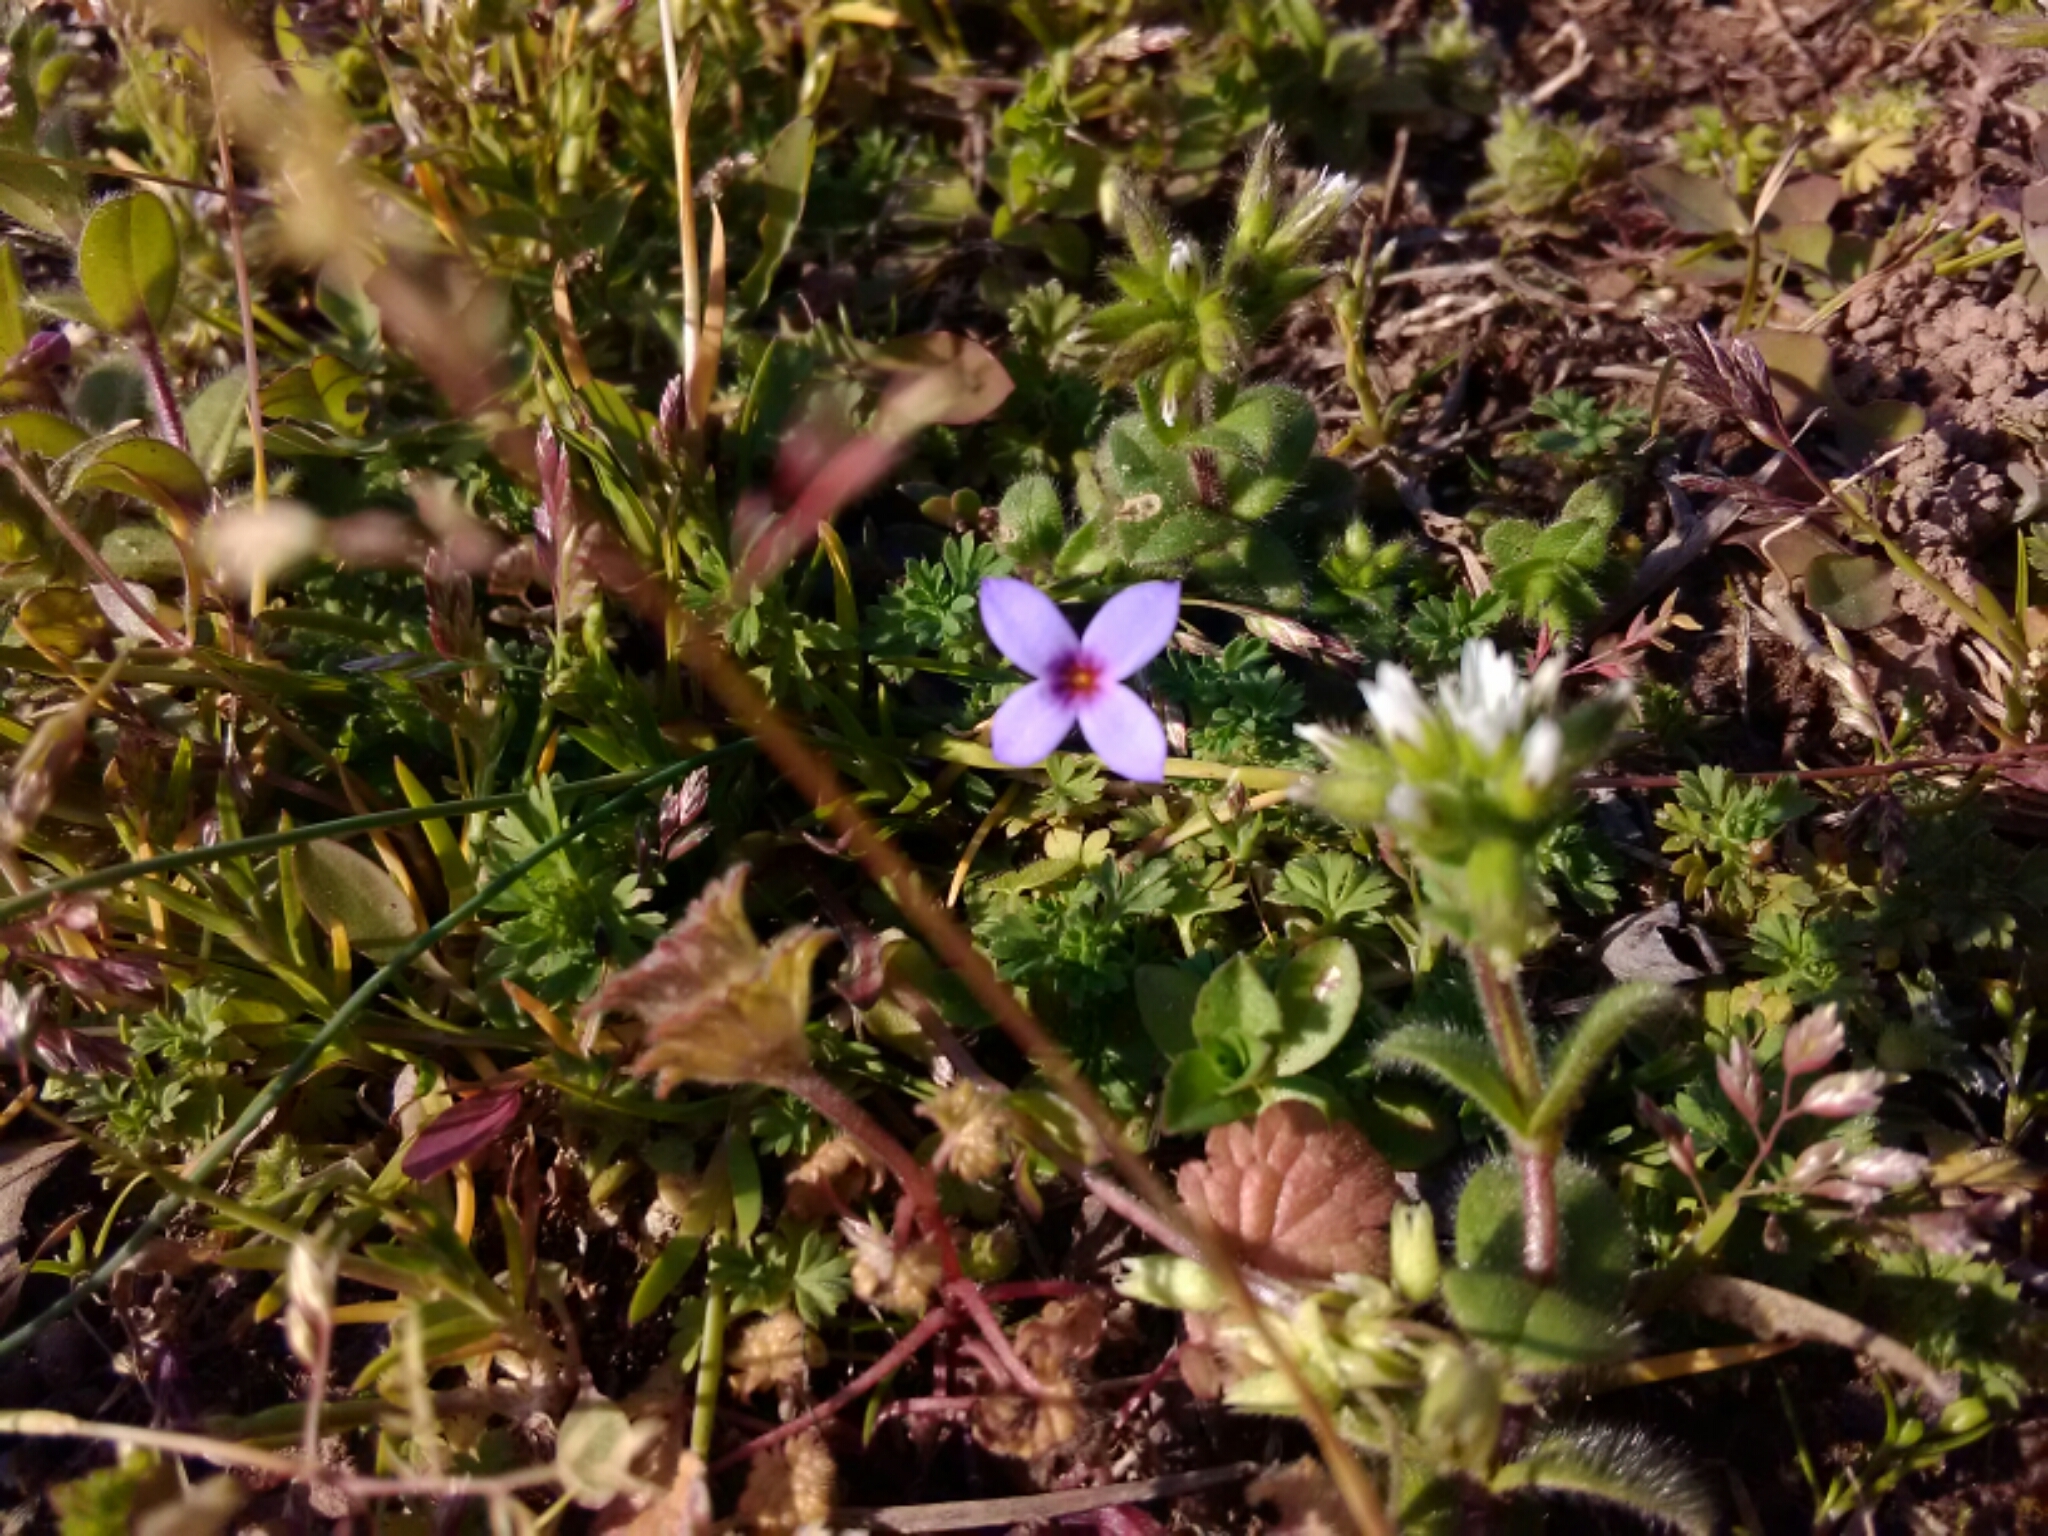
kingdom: Plantae
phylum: Tracheophyta
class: Magnoliopsida
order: Gentianales
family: Rubiaceae
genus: Houstonia
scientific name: Houstonia pusilla
